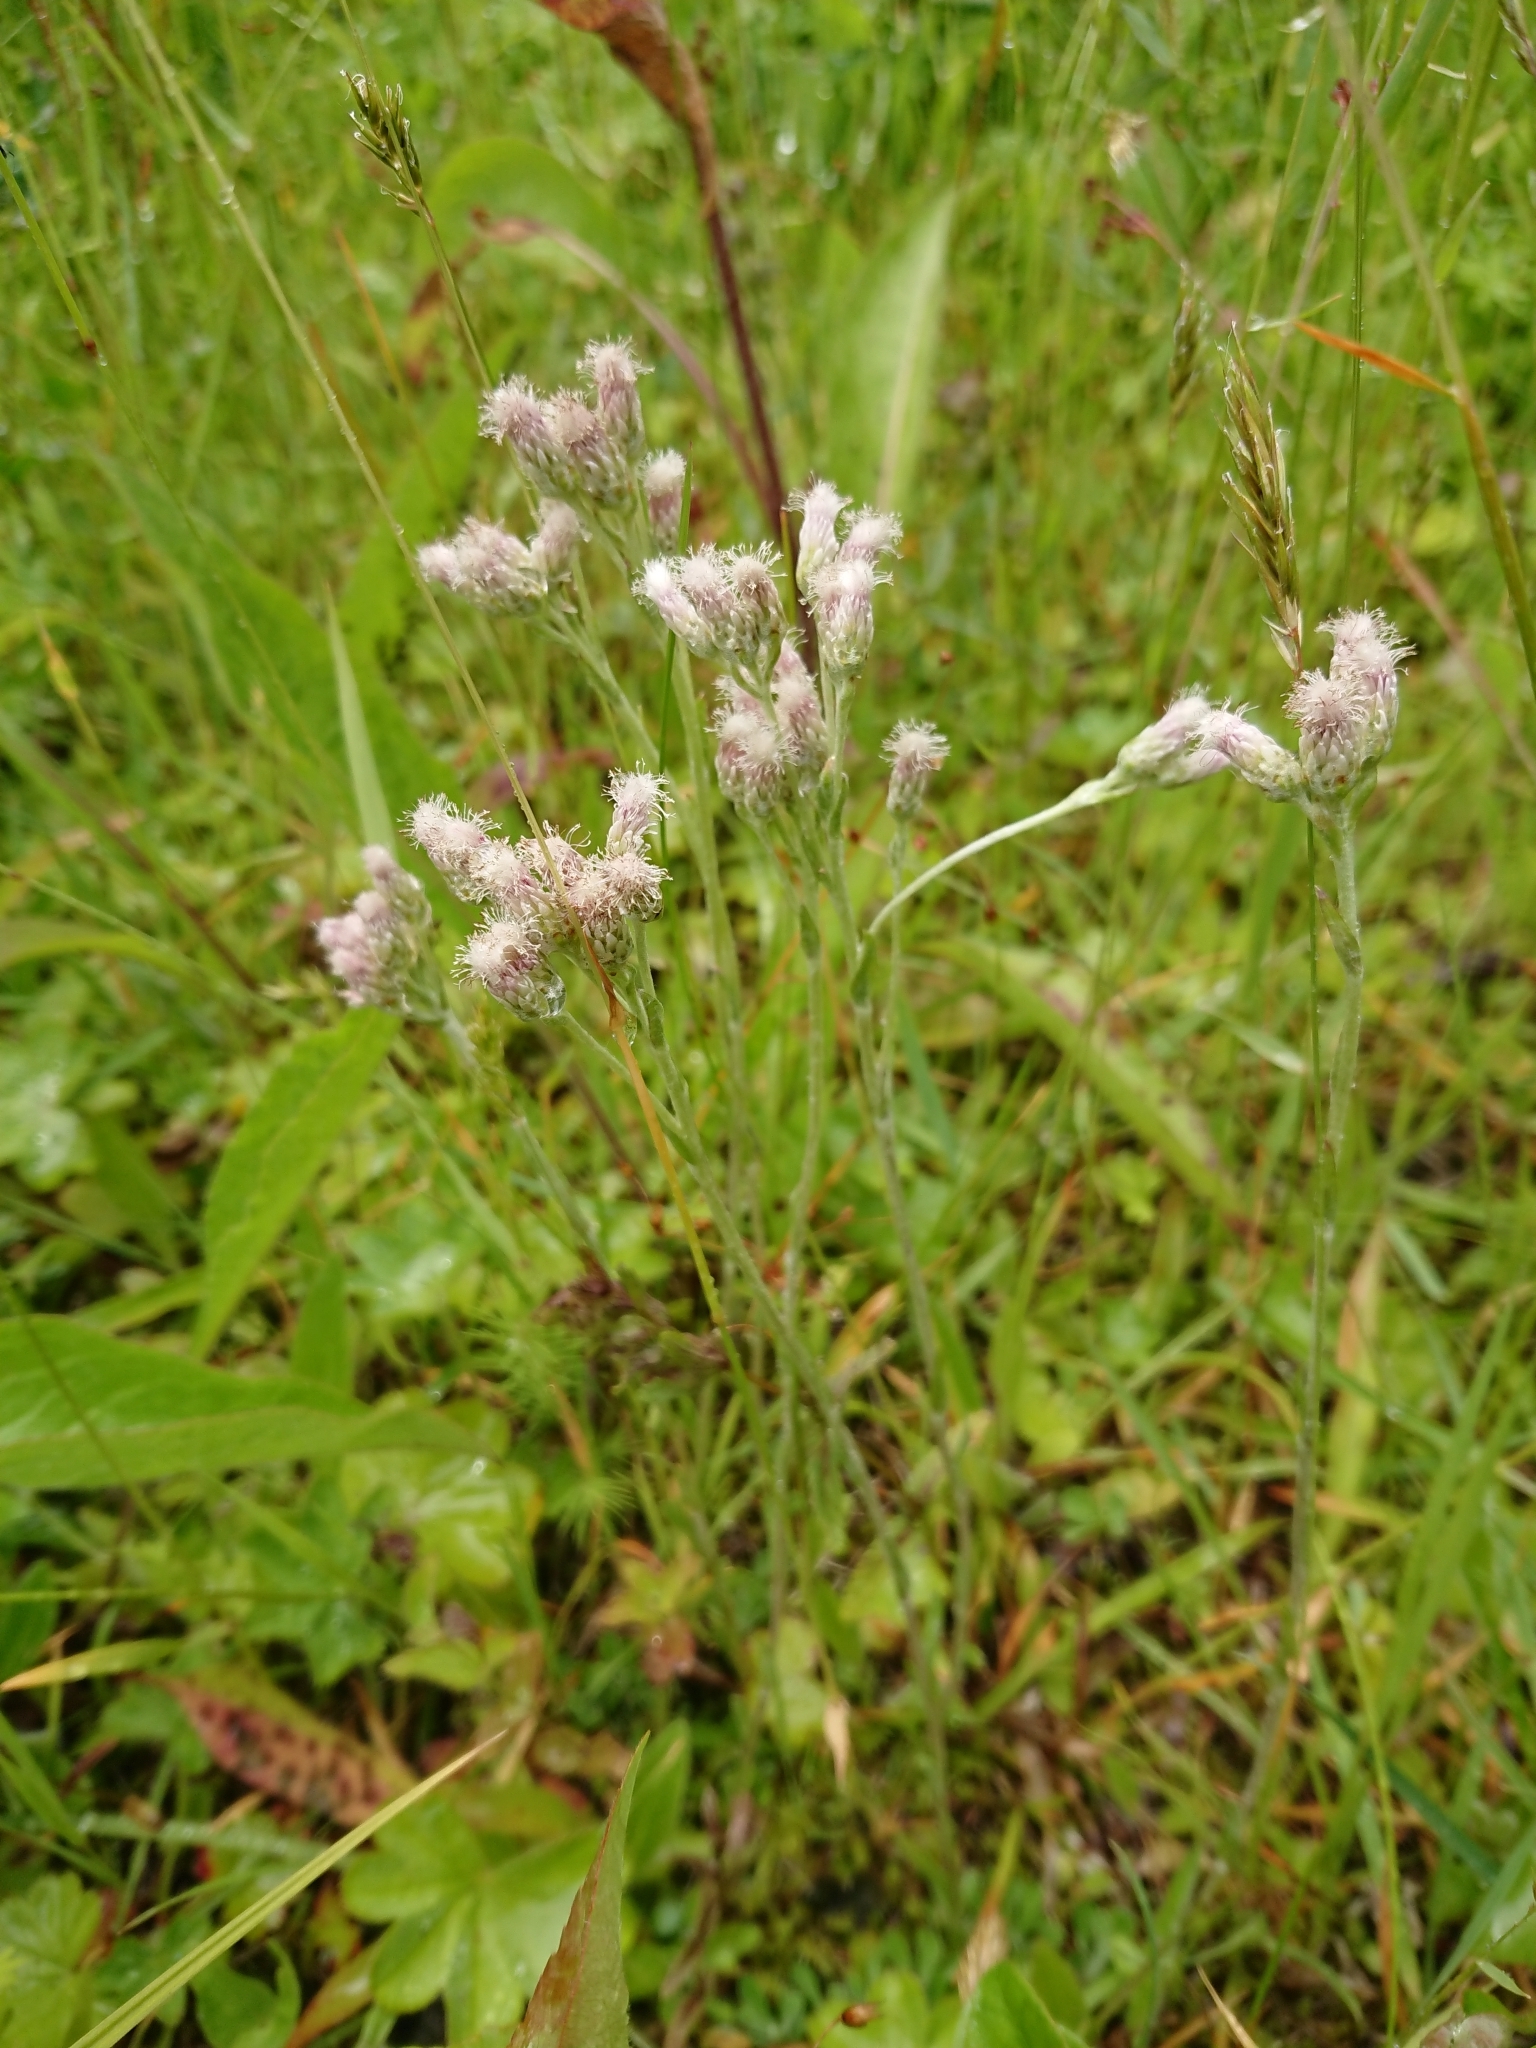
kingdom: Plantae
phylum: Tracheophyta
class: Magnoliopsida
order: Asterales
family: Asteraceae
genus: Antennaria
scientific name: Antennaria dioica
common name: Mountain everlasting
